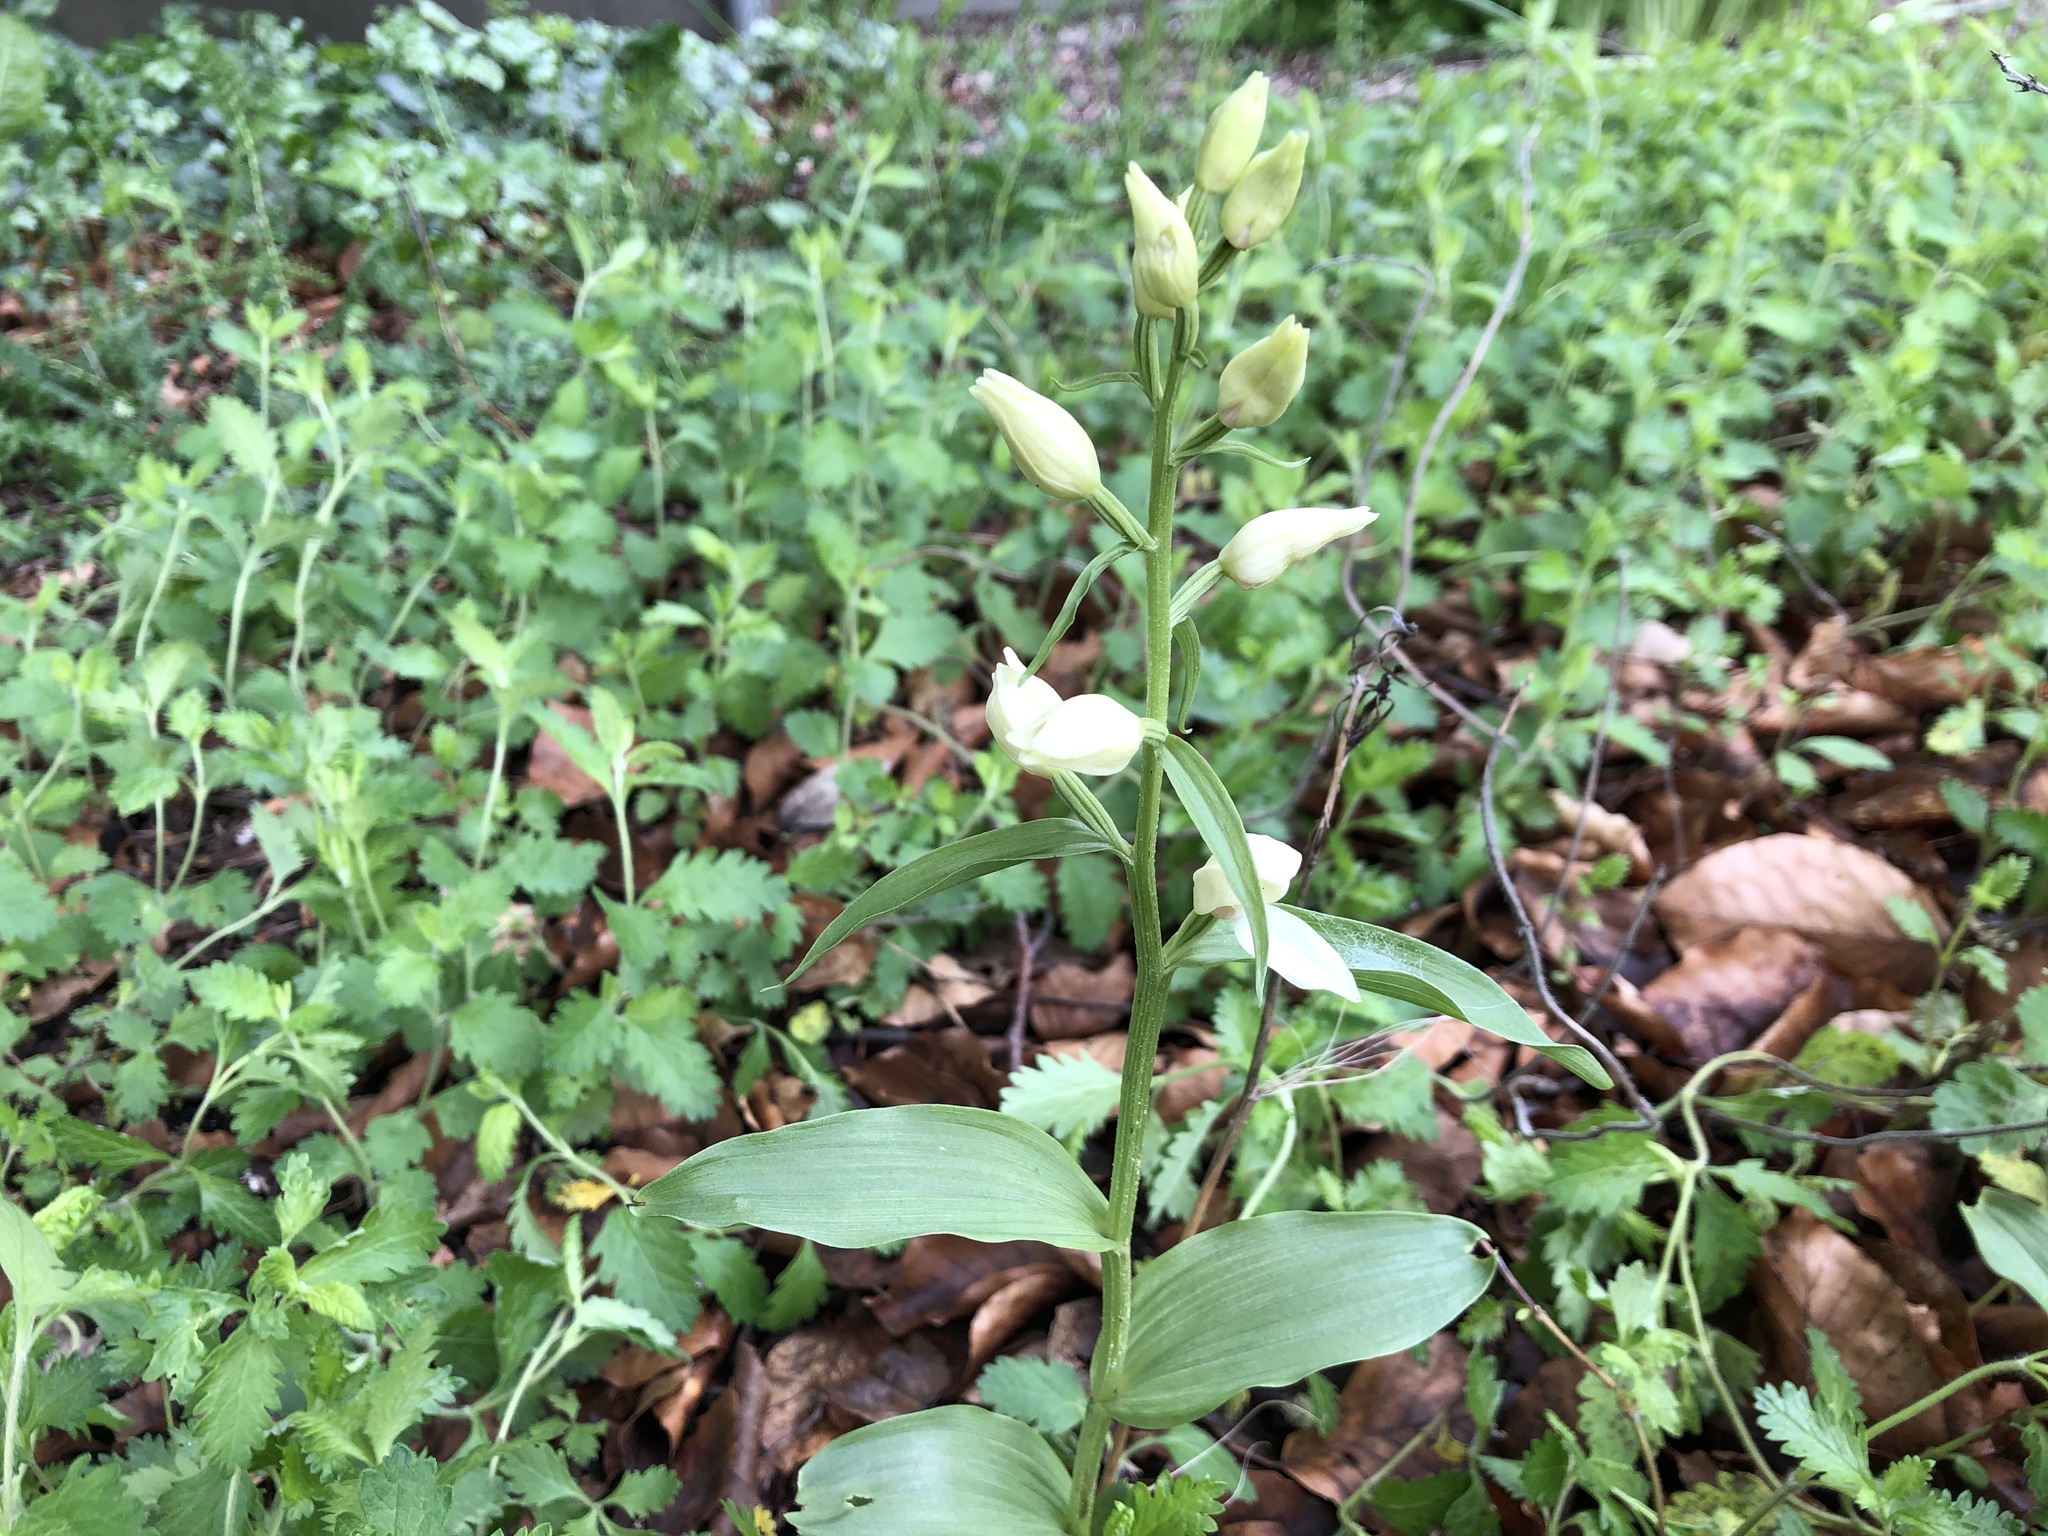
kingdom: Plantae
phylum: Tracheophyta
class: Liliopsida
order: Asparagales
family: Orchidaceae
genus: Cephalanthera
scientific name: Cephalanthera damasonium
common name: White helleborine
